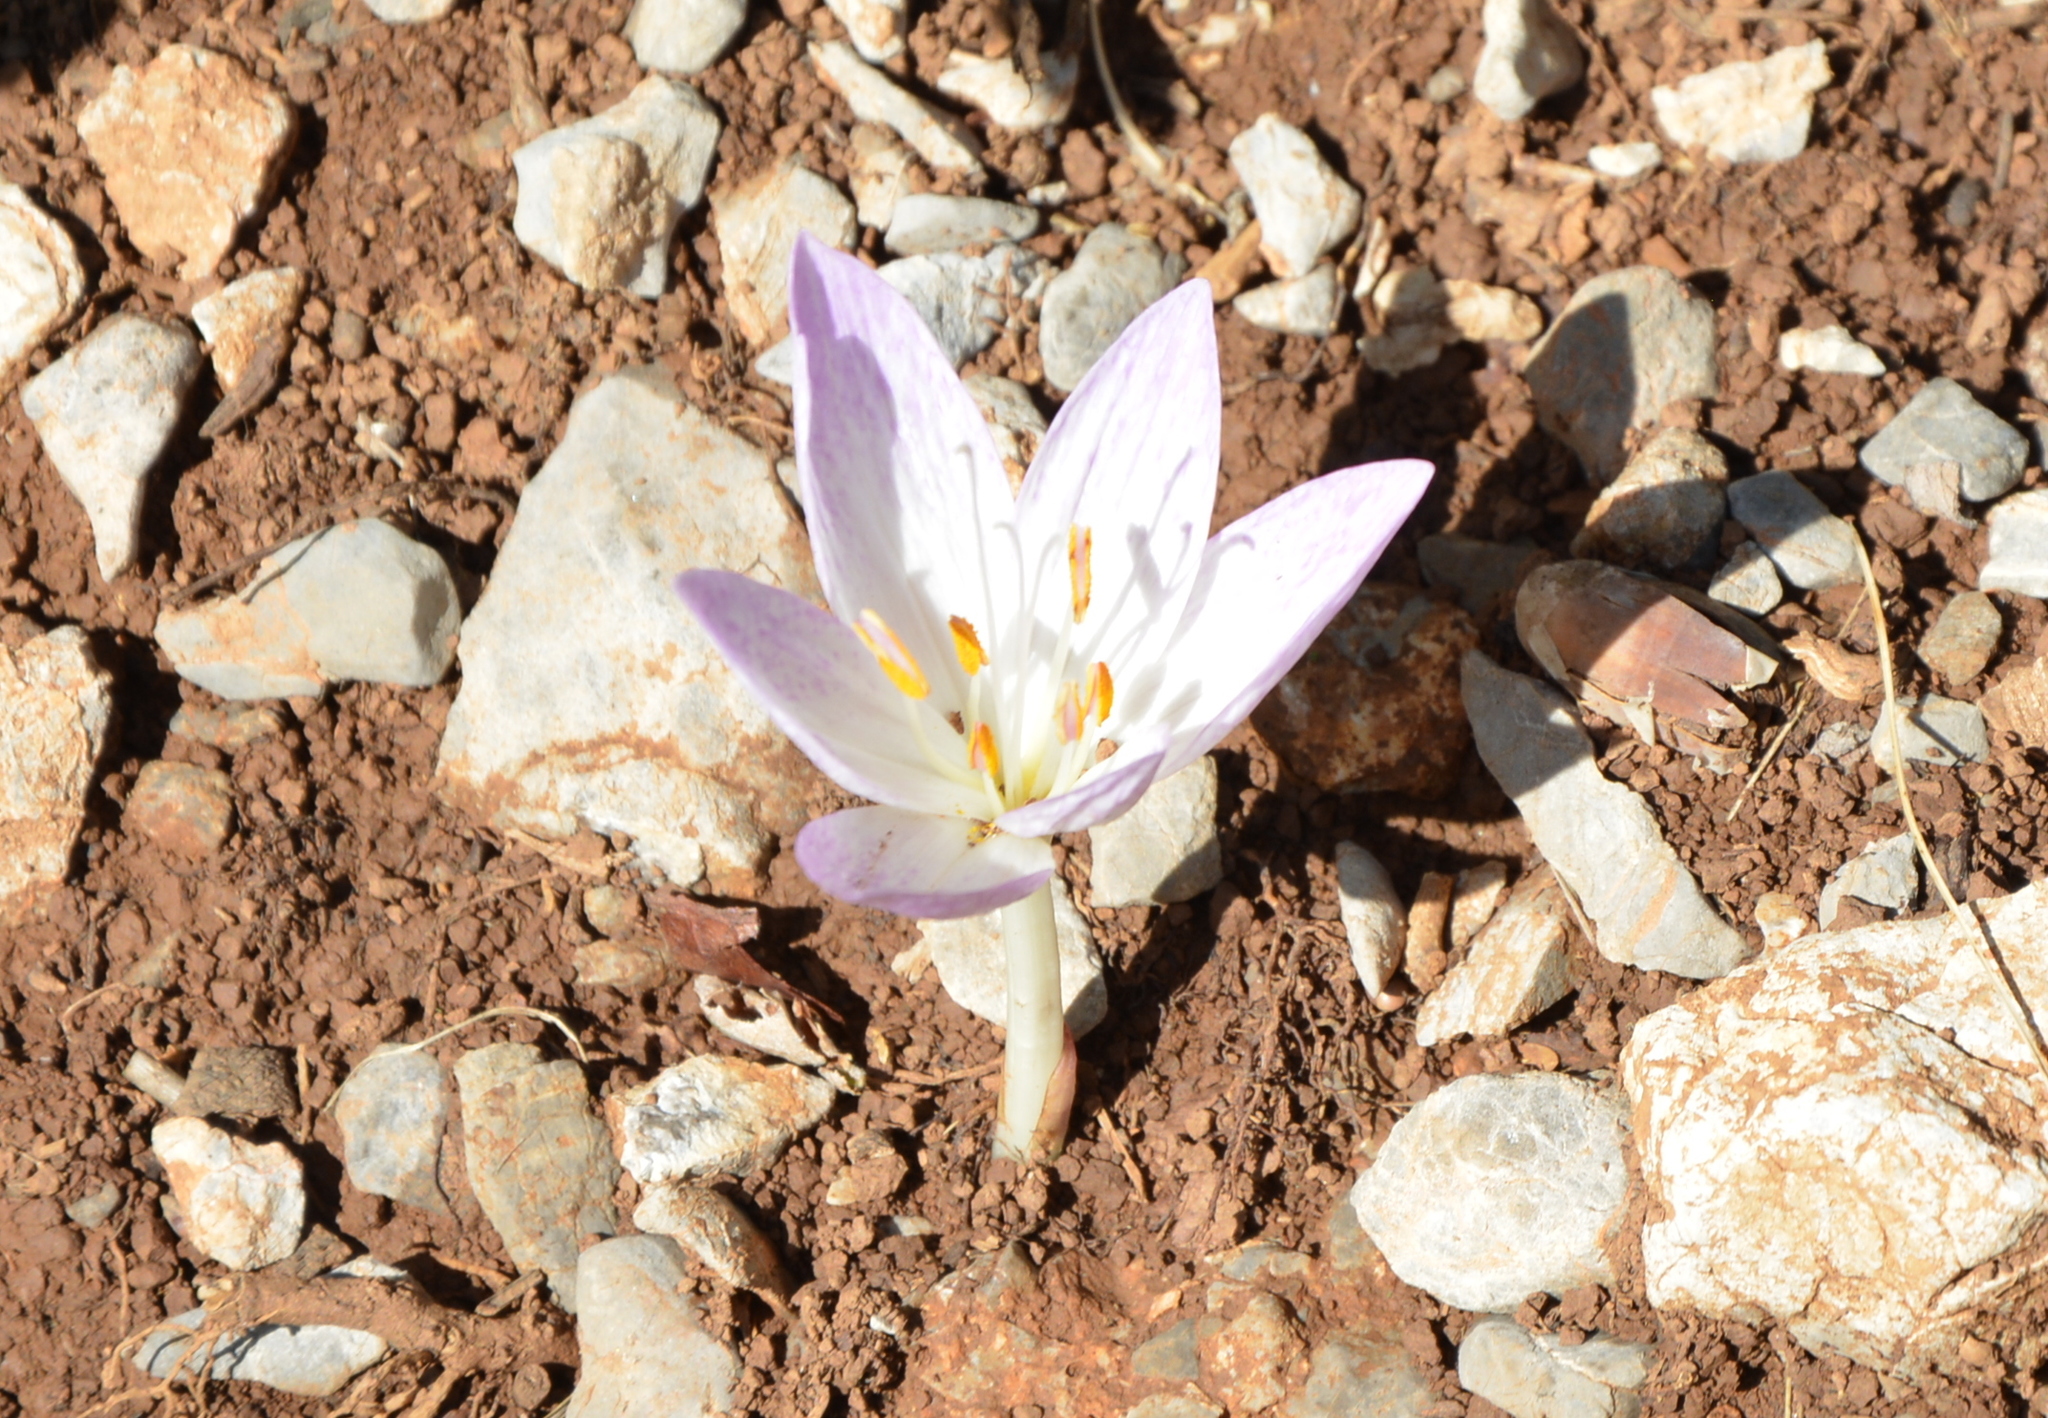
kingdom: Plantae
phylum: Tracheophyta
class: Liliopsida
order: Liliales
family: Colchicaceae
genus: Colchicum
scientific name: Colchicum haynaldii
